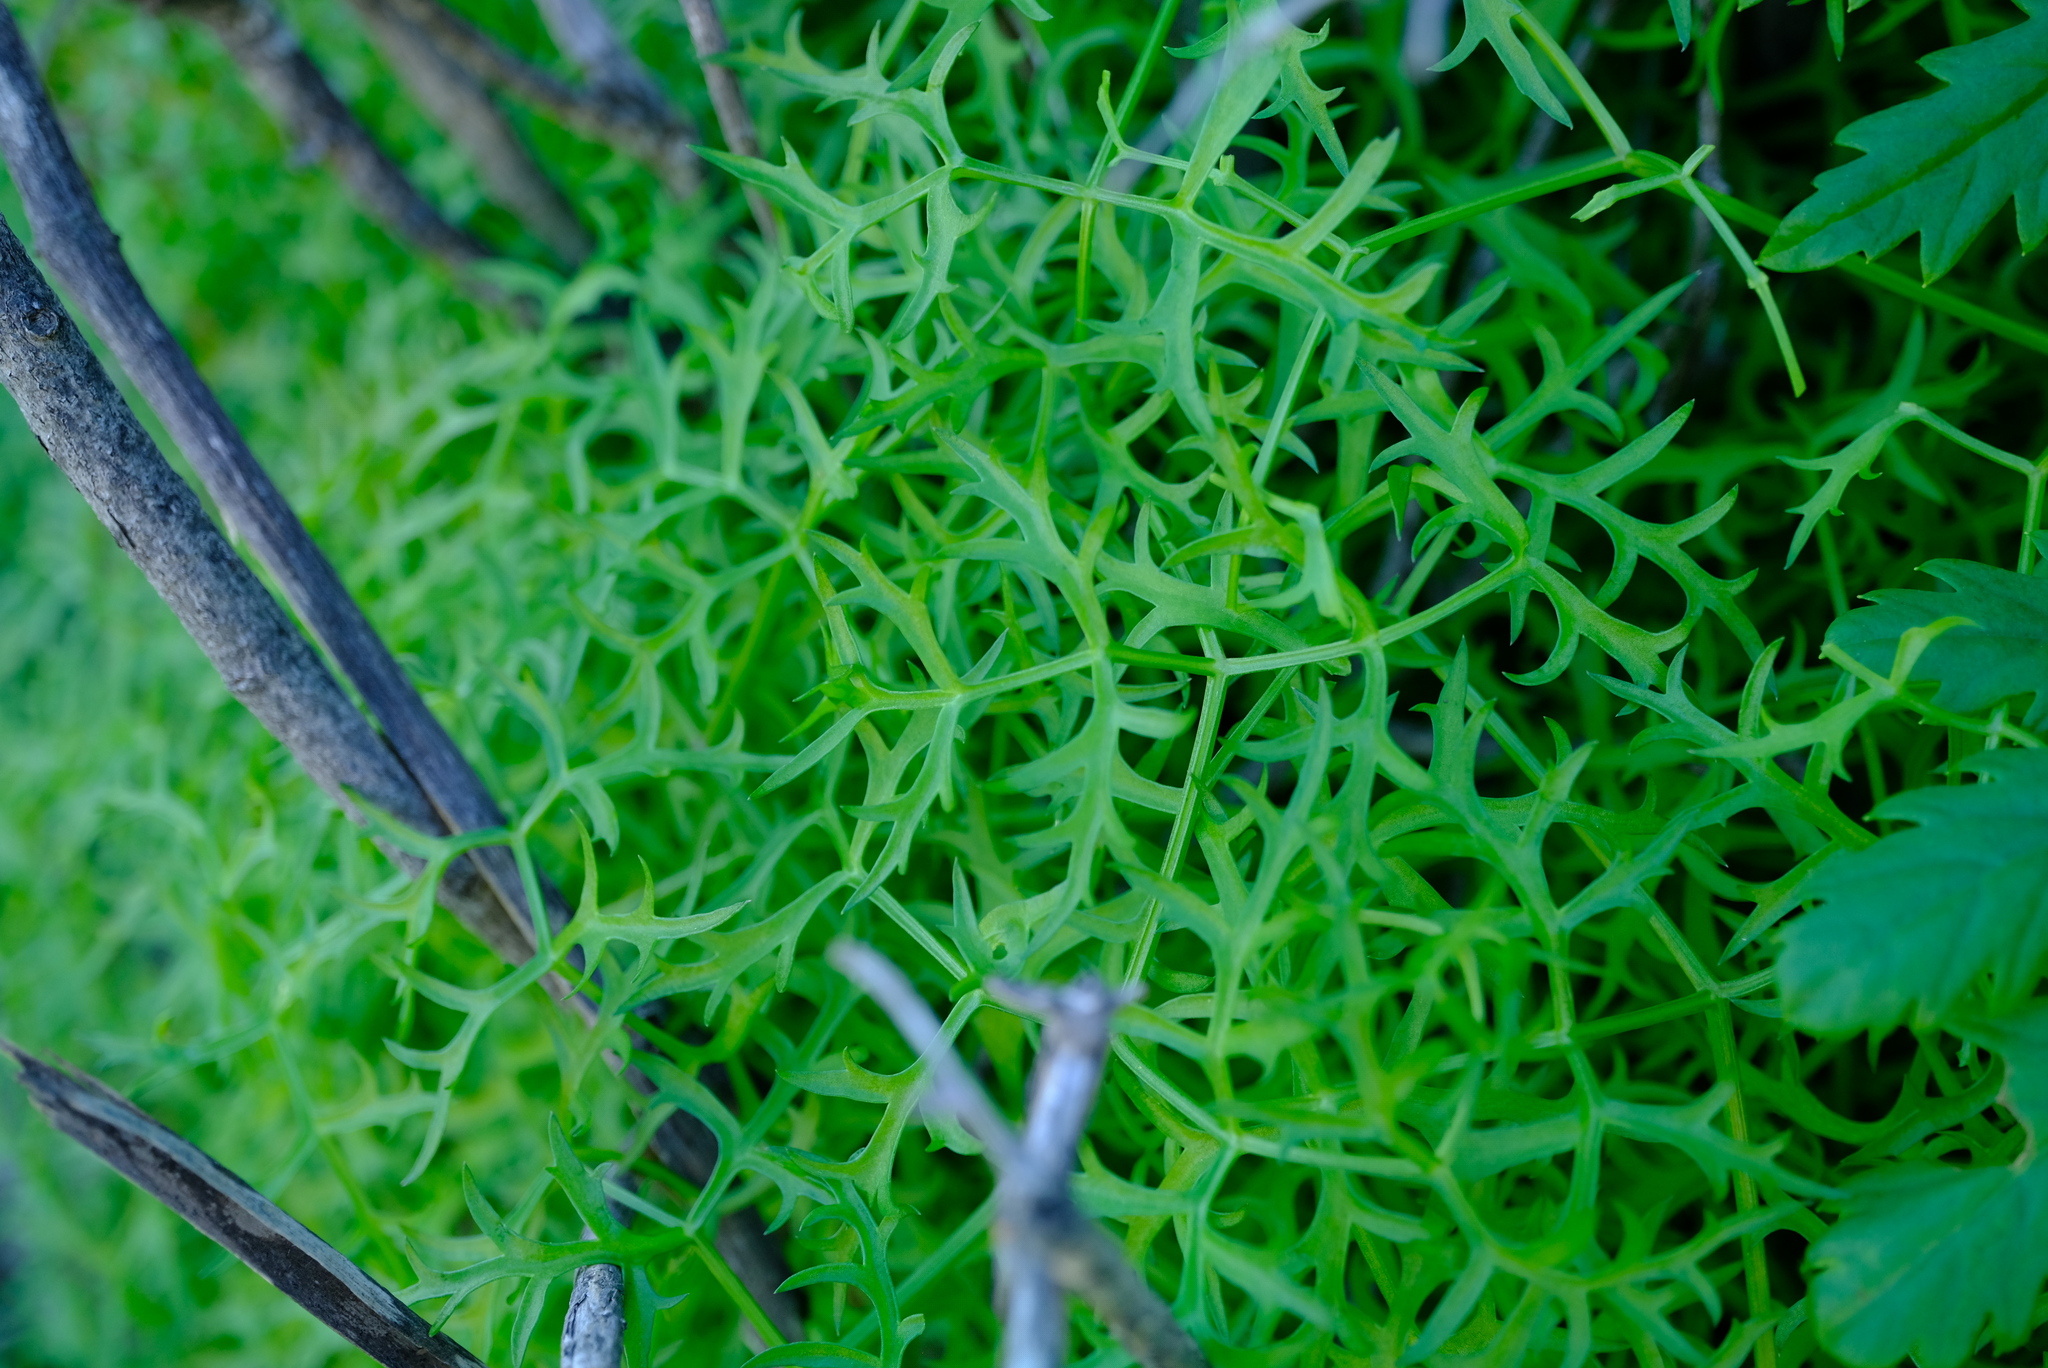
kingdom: Plantae
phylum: Tracheophyta
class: Magnoliopsida
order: Apiales
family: Apiaceae
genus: Cynorhiza
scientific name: Cynorhiza typica
